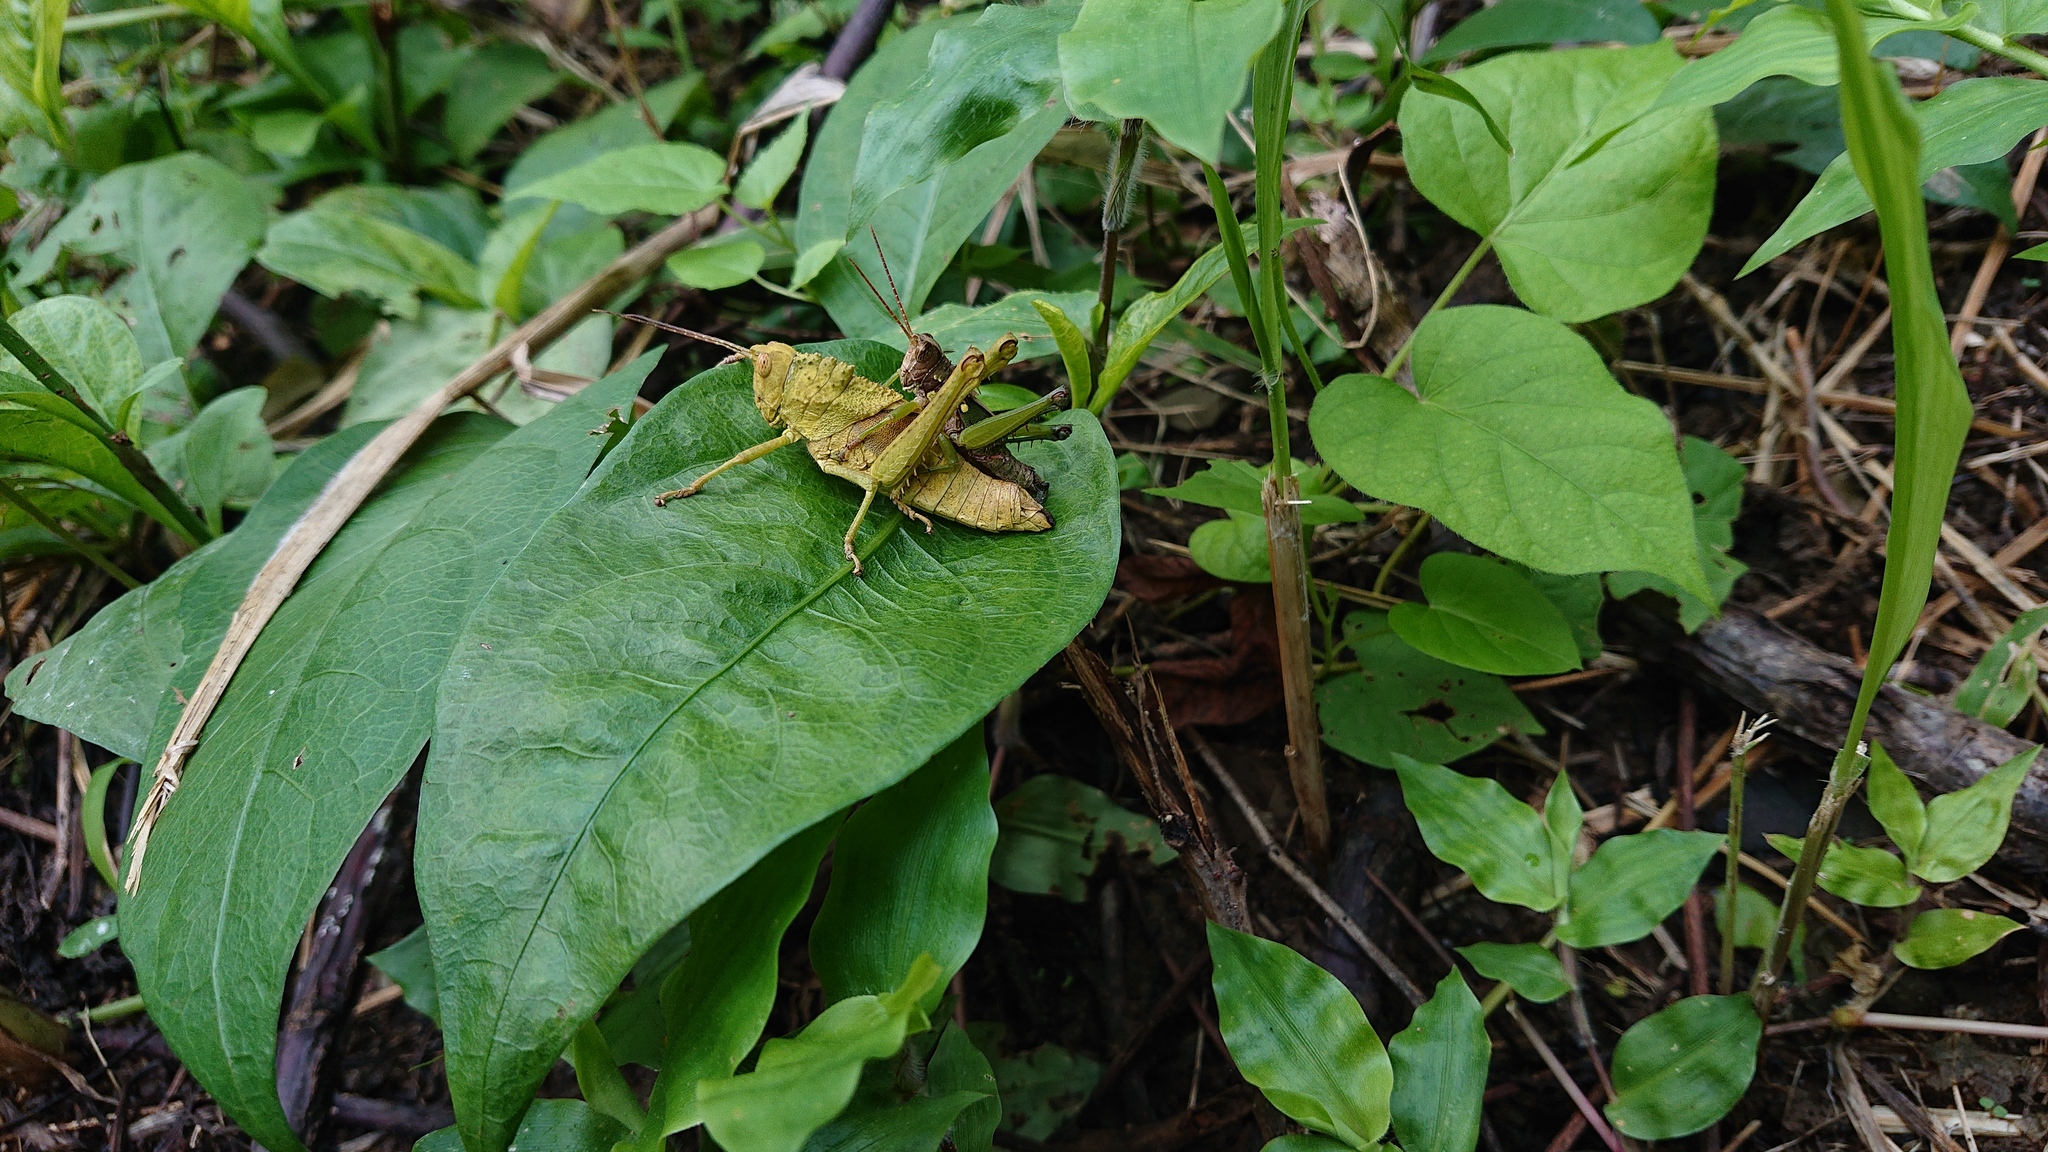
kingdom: Animalia
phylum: Arthropoda
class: Insecta
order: Orthoptera
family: Romaleidae
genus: Agriacris
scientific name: Agriacris aequatoriana
